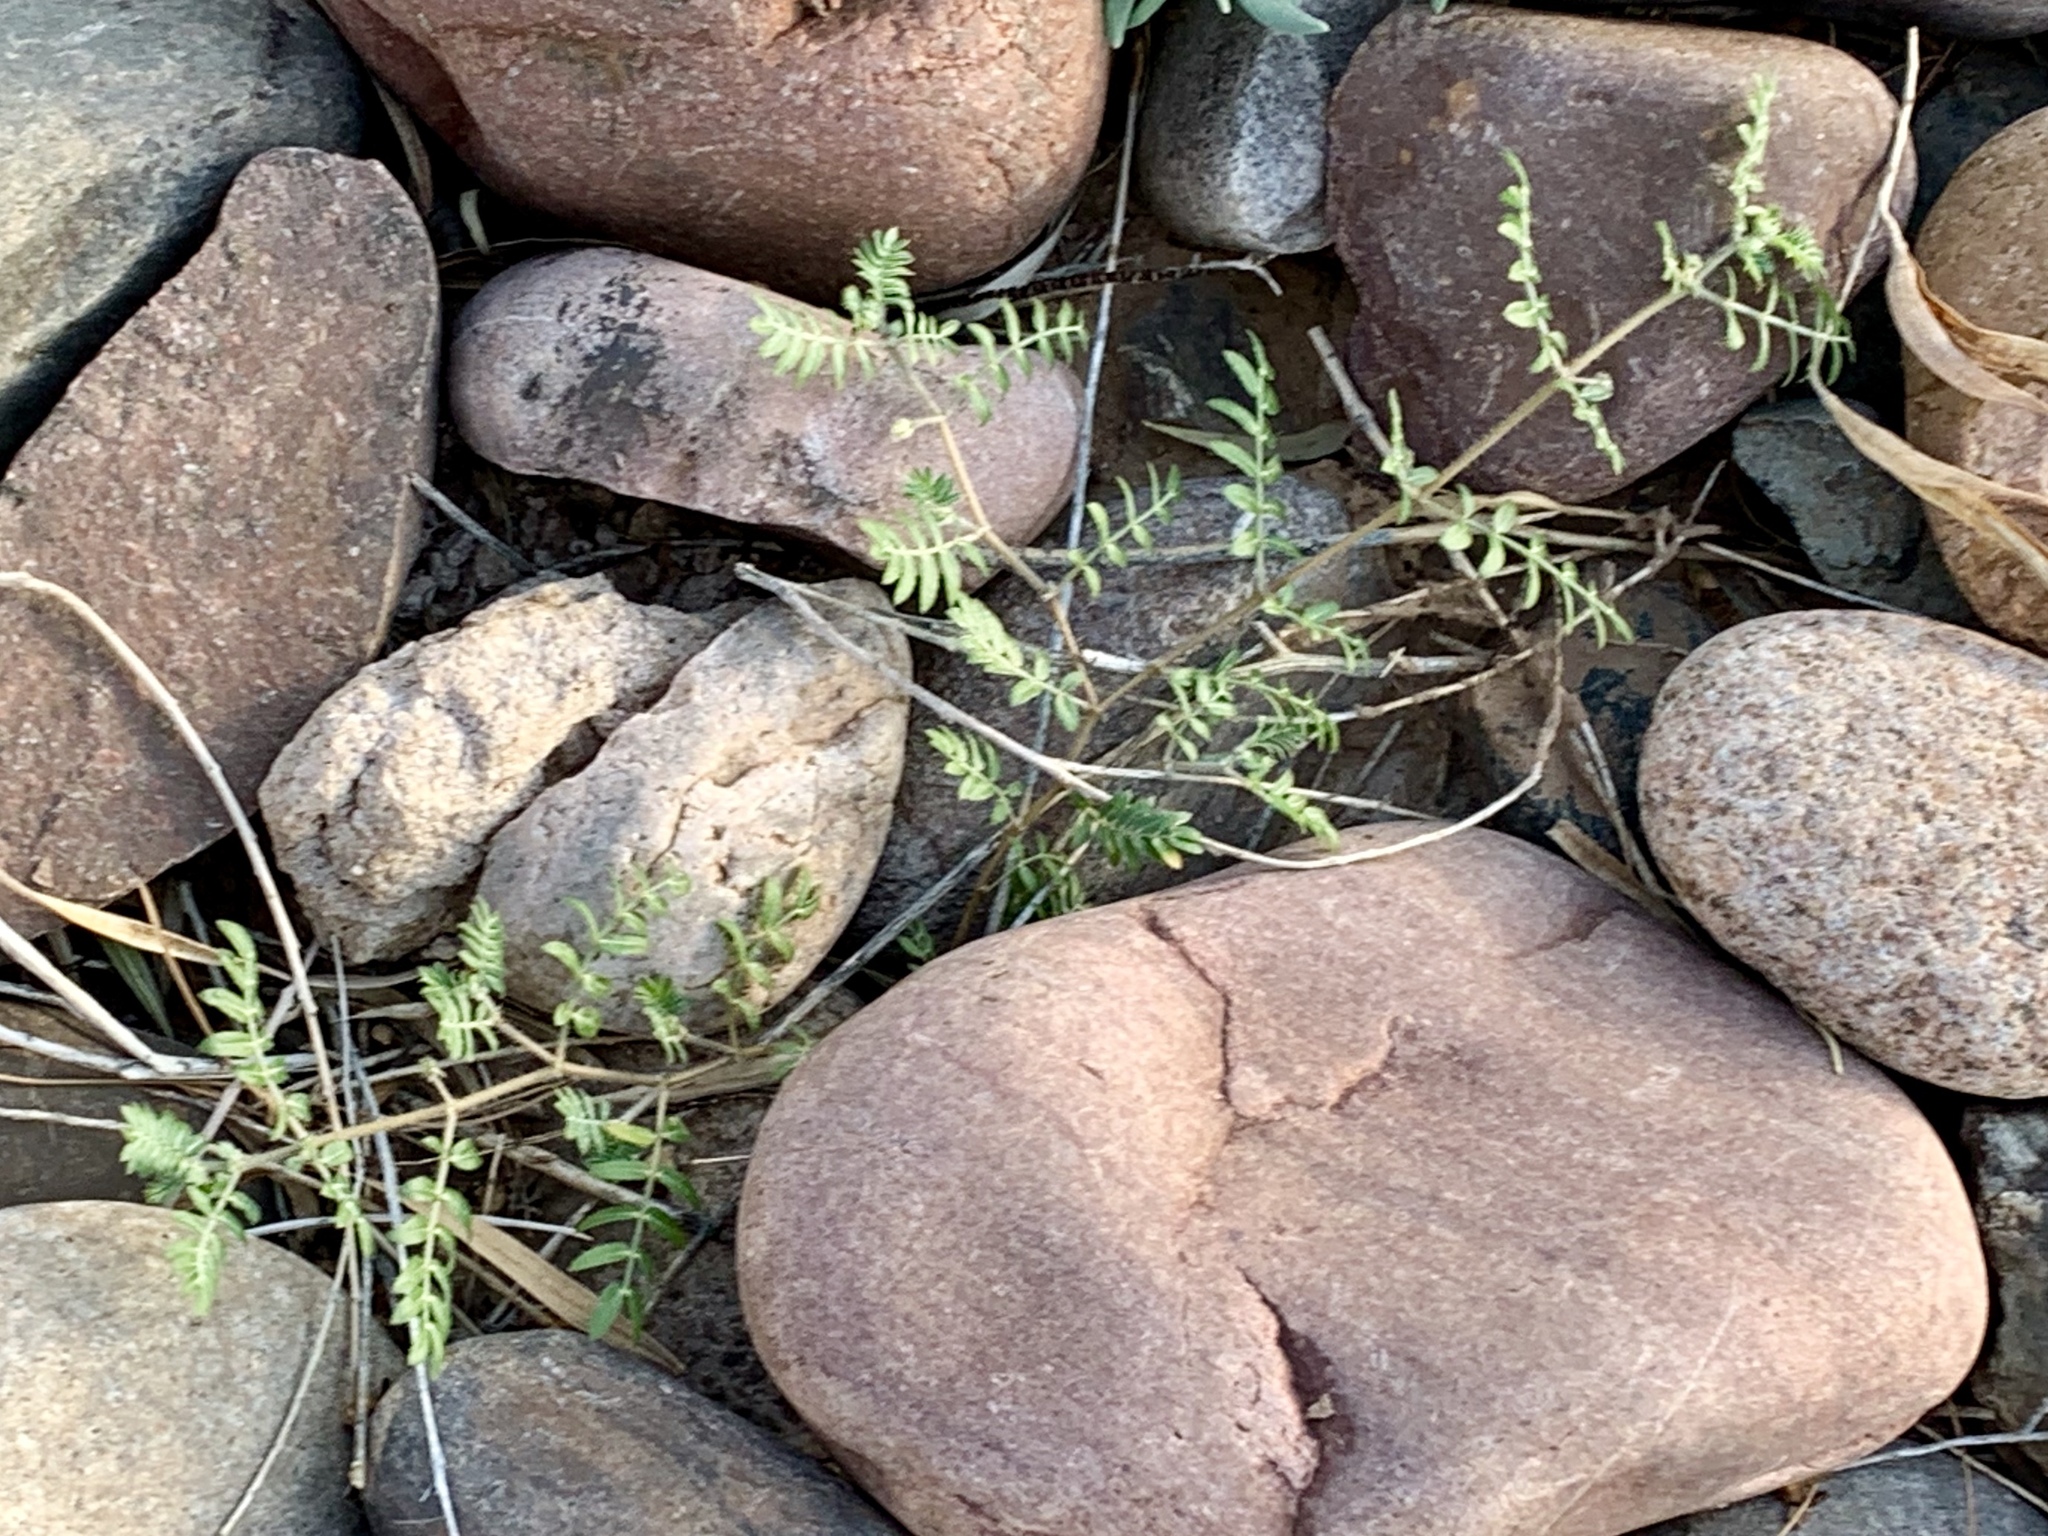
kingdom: Plantae
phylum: Tracheophyta
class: Magnoliopsida
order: Zygophyllales
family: Zygophyllaceae
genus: Tribulus
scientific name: Tribulus terrestris
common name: Puncturevine
